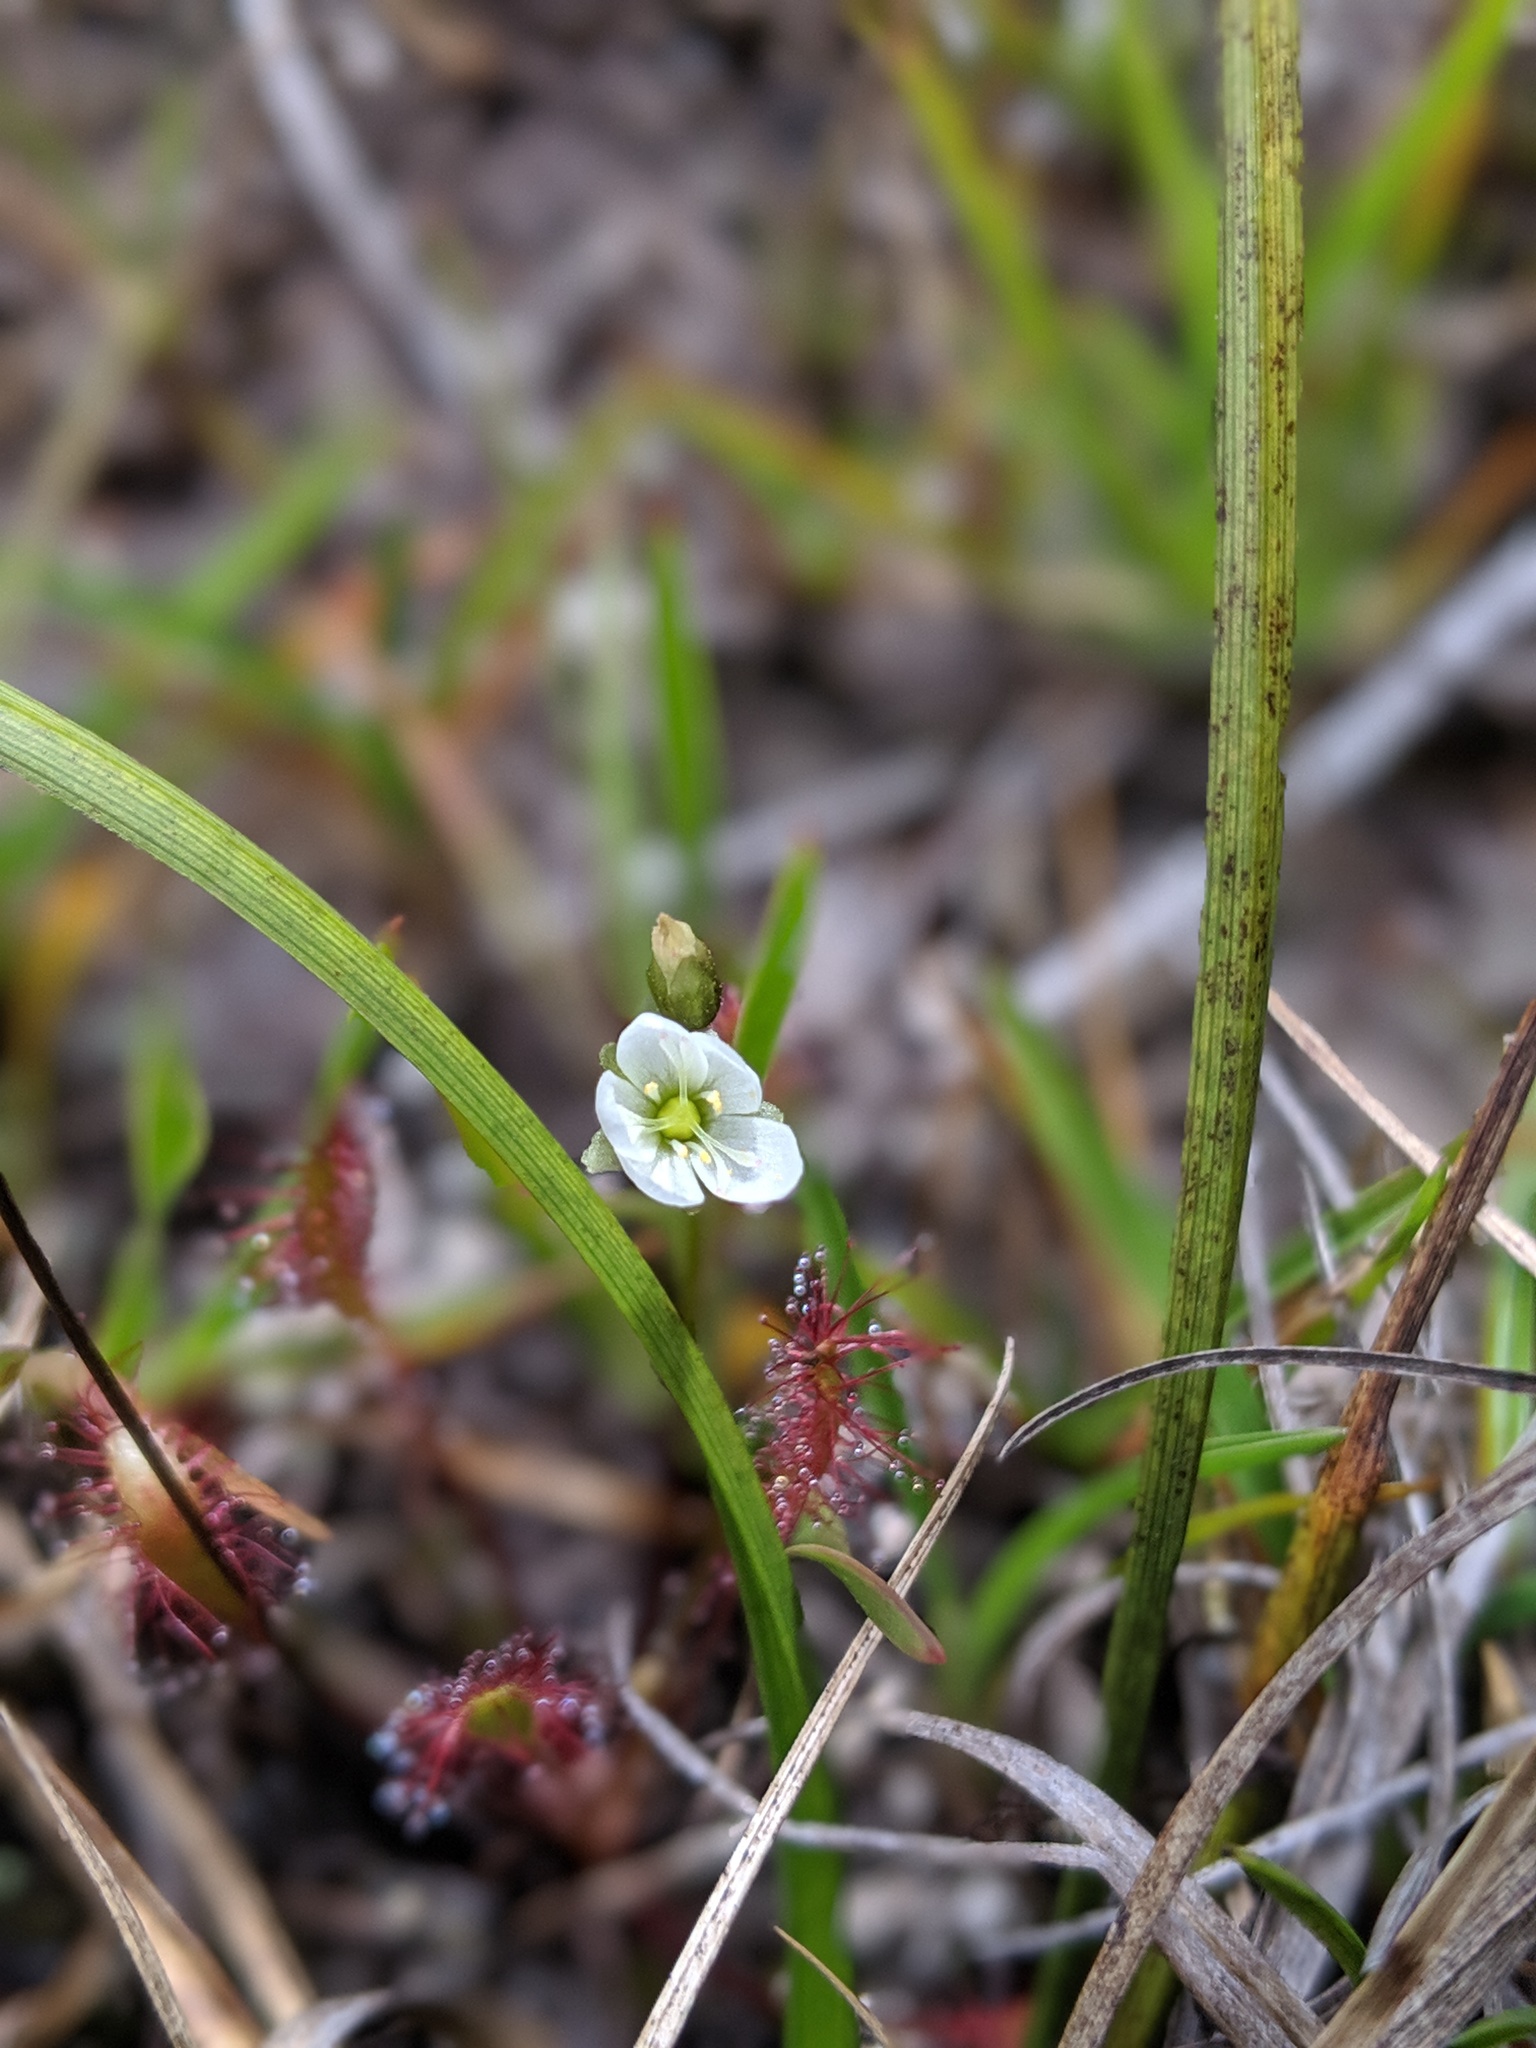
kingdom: Plantae
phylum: Tracheophyta
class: Magnoliopsida
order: Caryophyllales
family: Droseraceae
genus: Drosera
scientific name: Drosera anglica
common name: Great sundew
